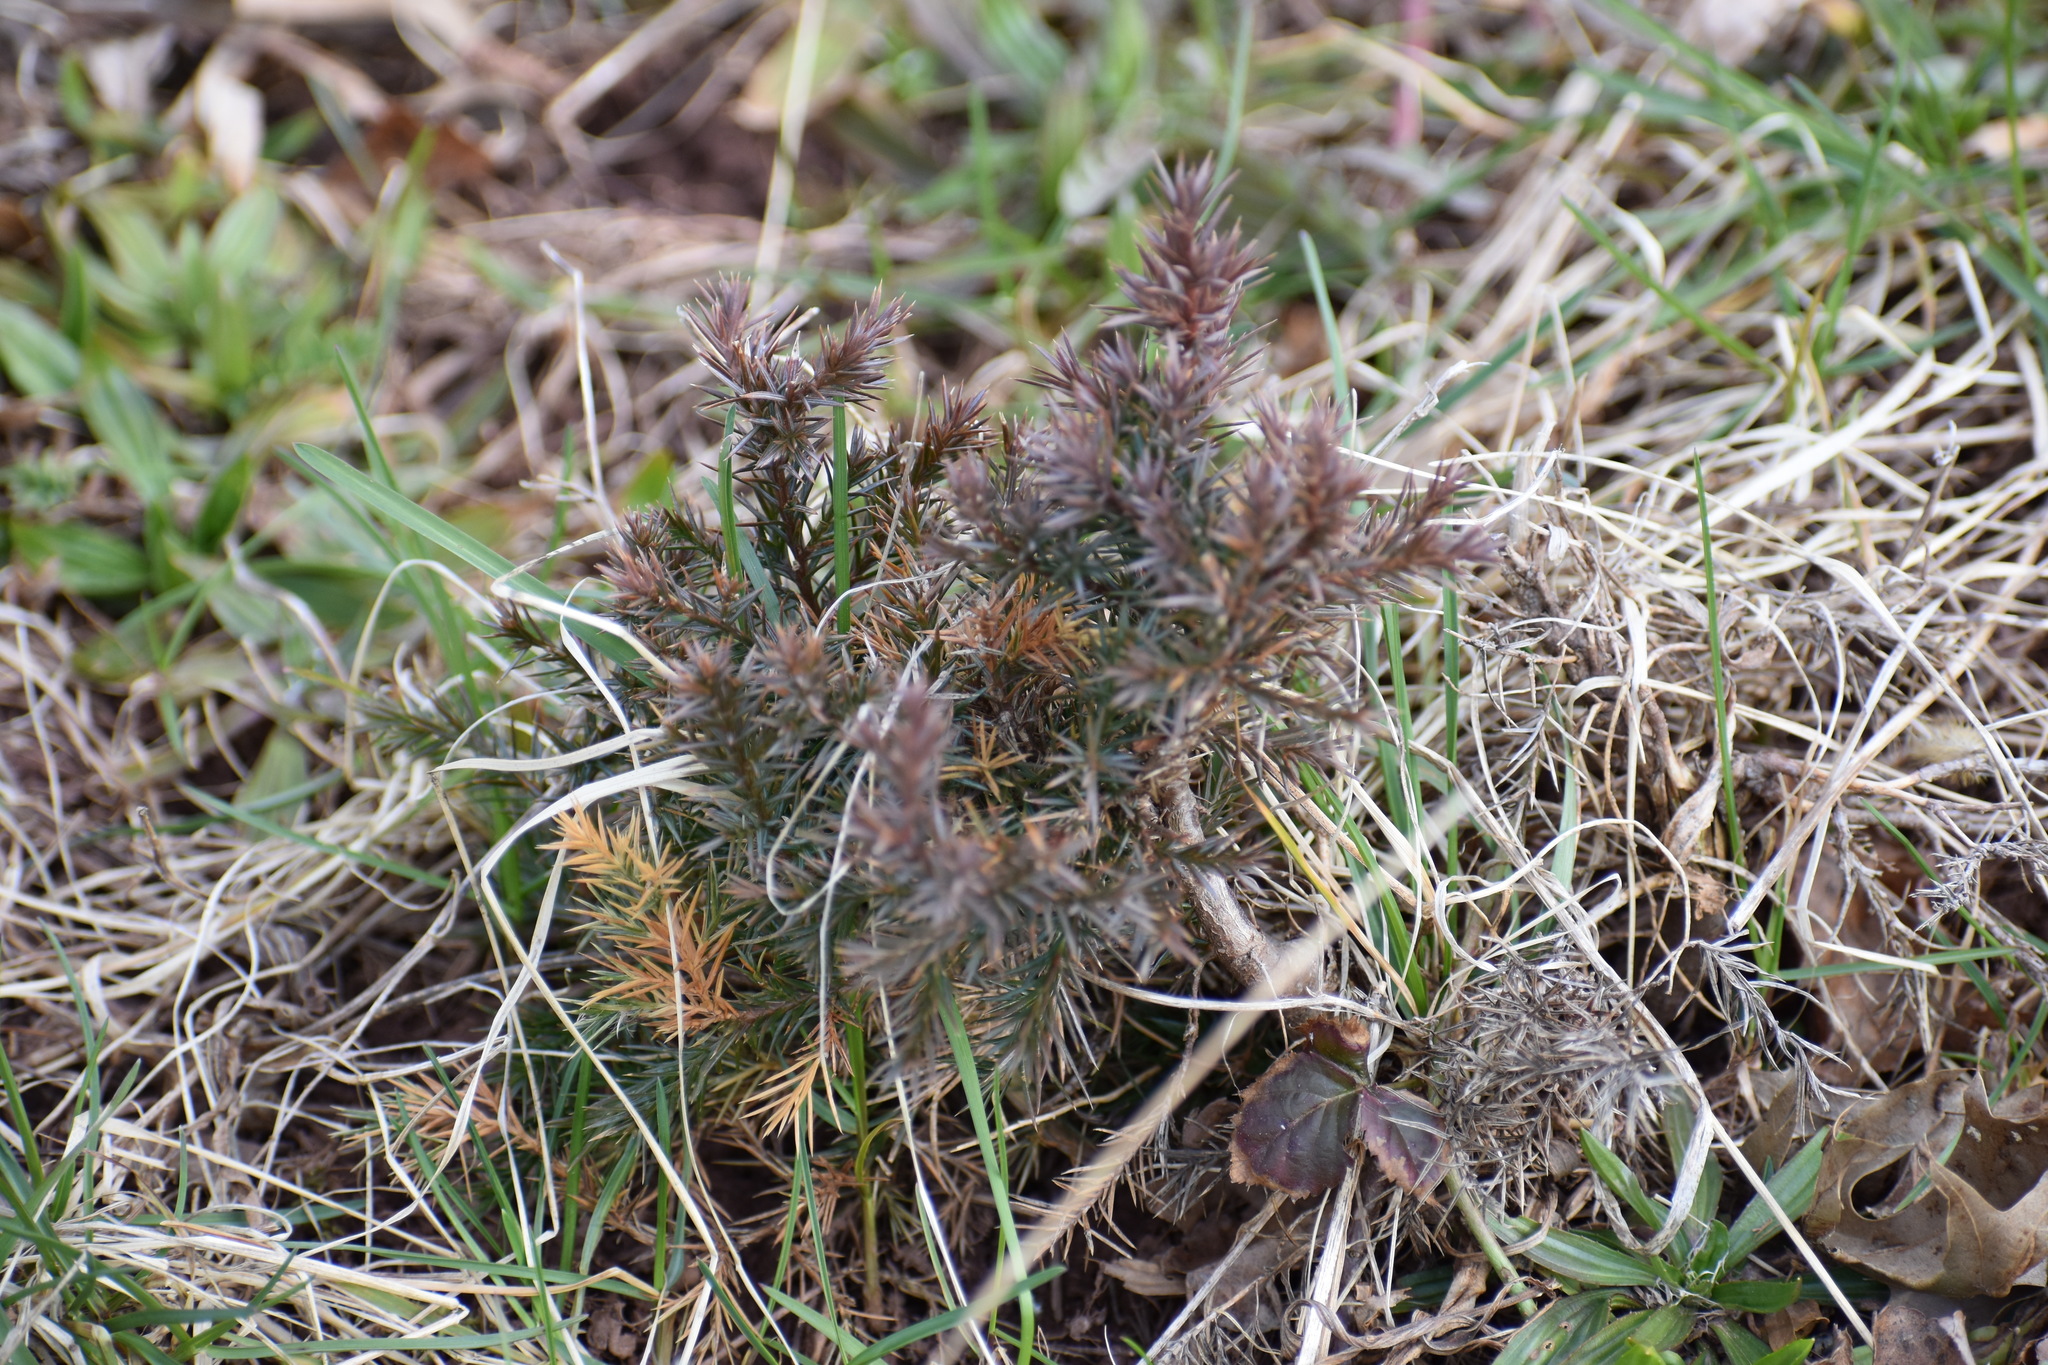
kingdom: Plantae
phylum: Tracheophyta
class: Pinopsida
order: Pinales
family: Cupressaceae
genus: Juniperus
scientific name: Juniperus virginiana
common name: Red juniper
